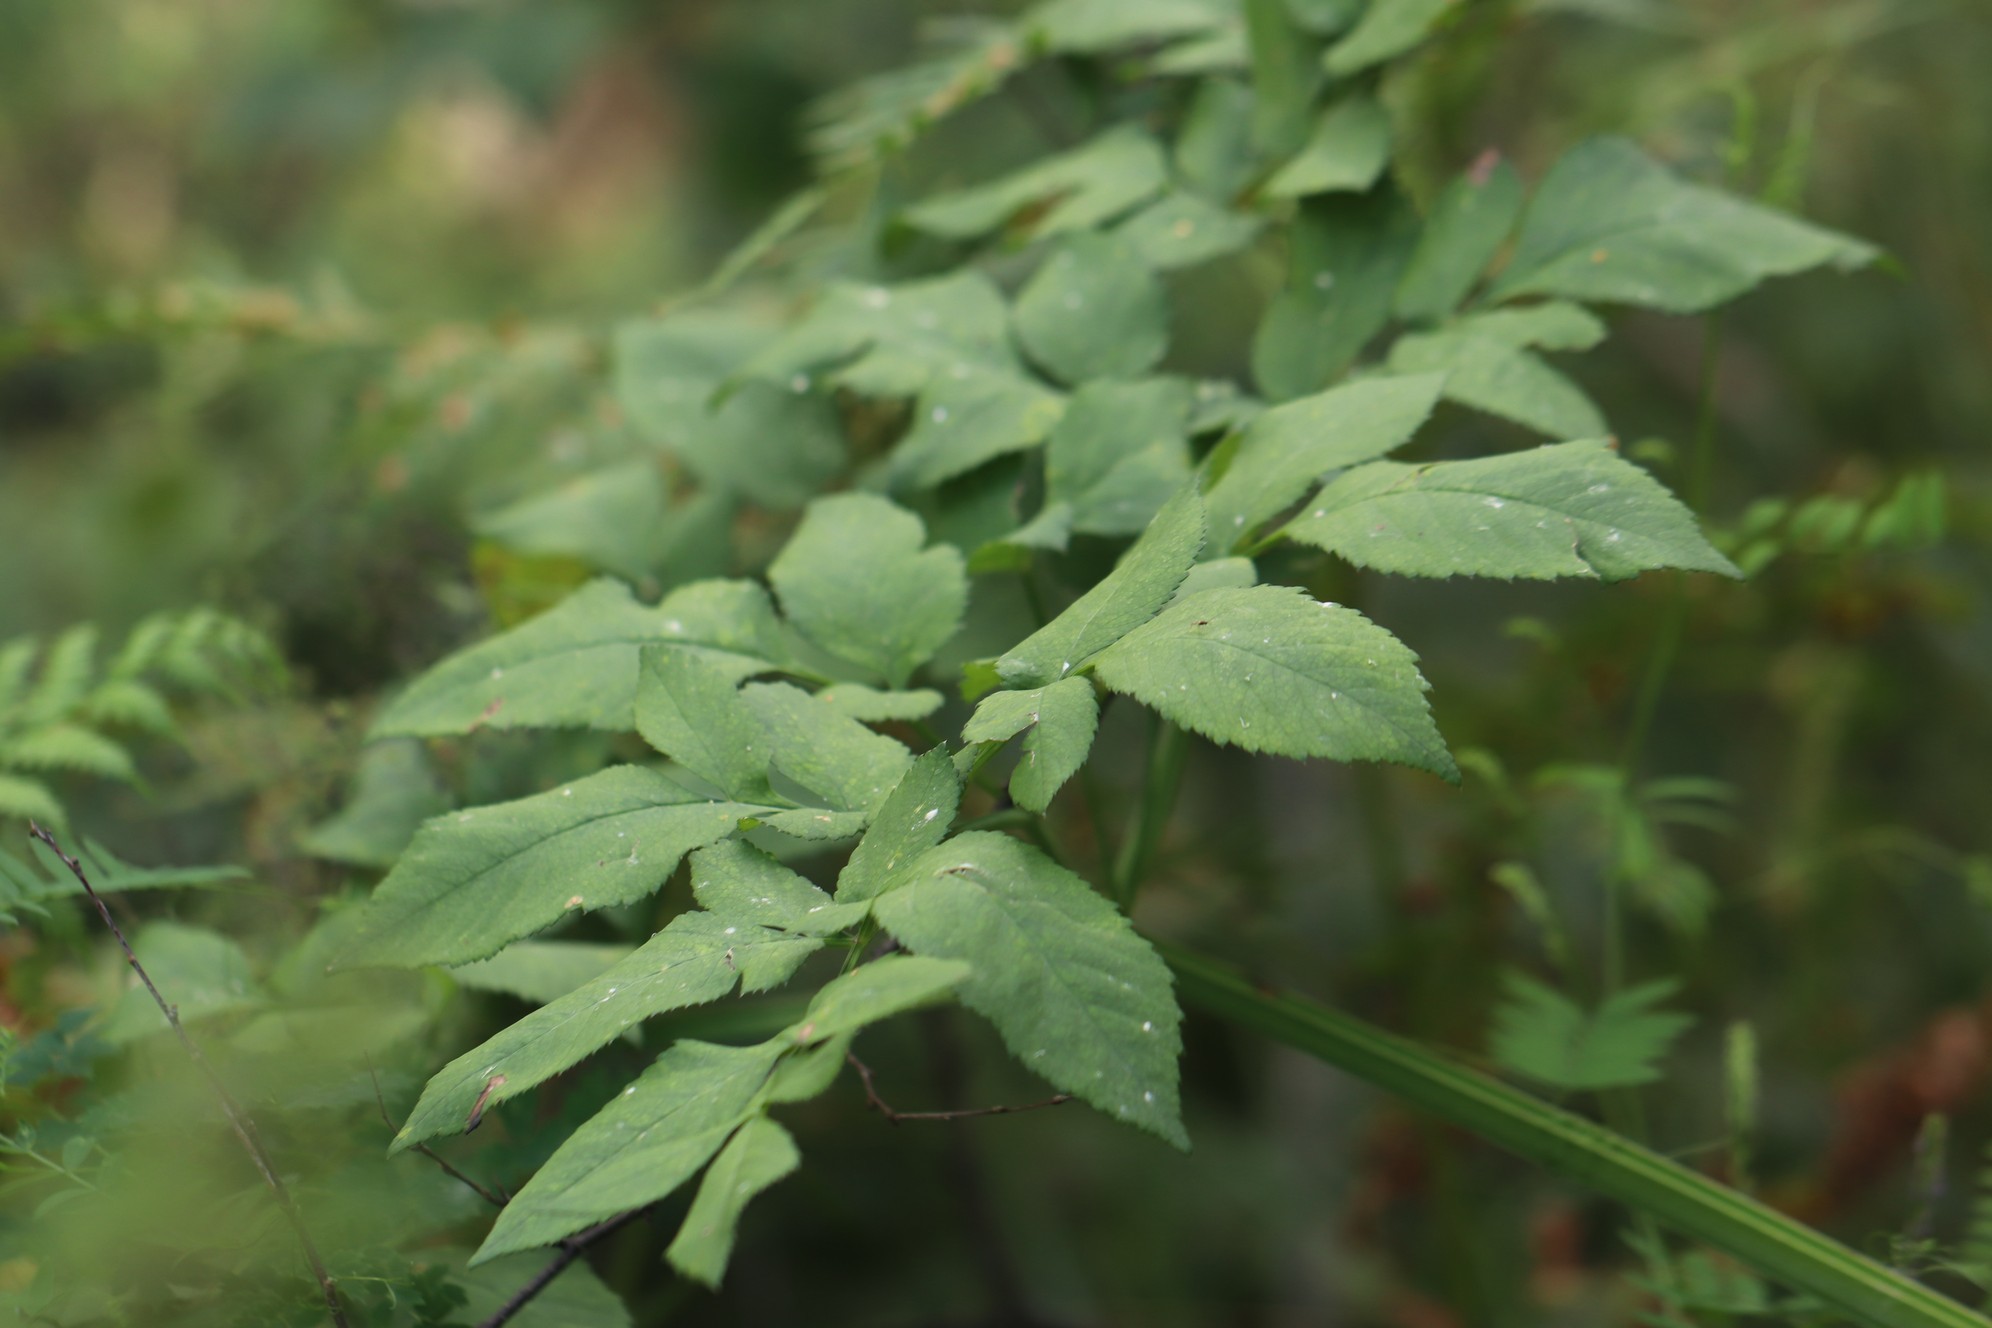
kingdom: Plantae
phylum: Tracheophyta
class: Magnoliopsida
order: Apiales
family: Apiaceae
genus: Angelica
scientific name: Angelica sylvestris
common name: Wild angelica
